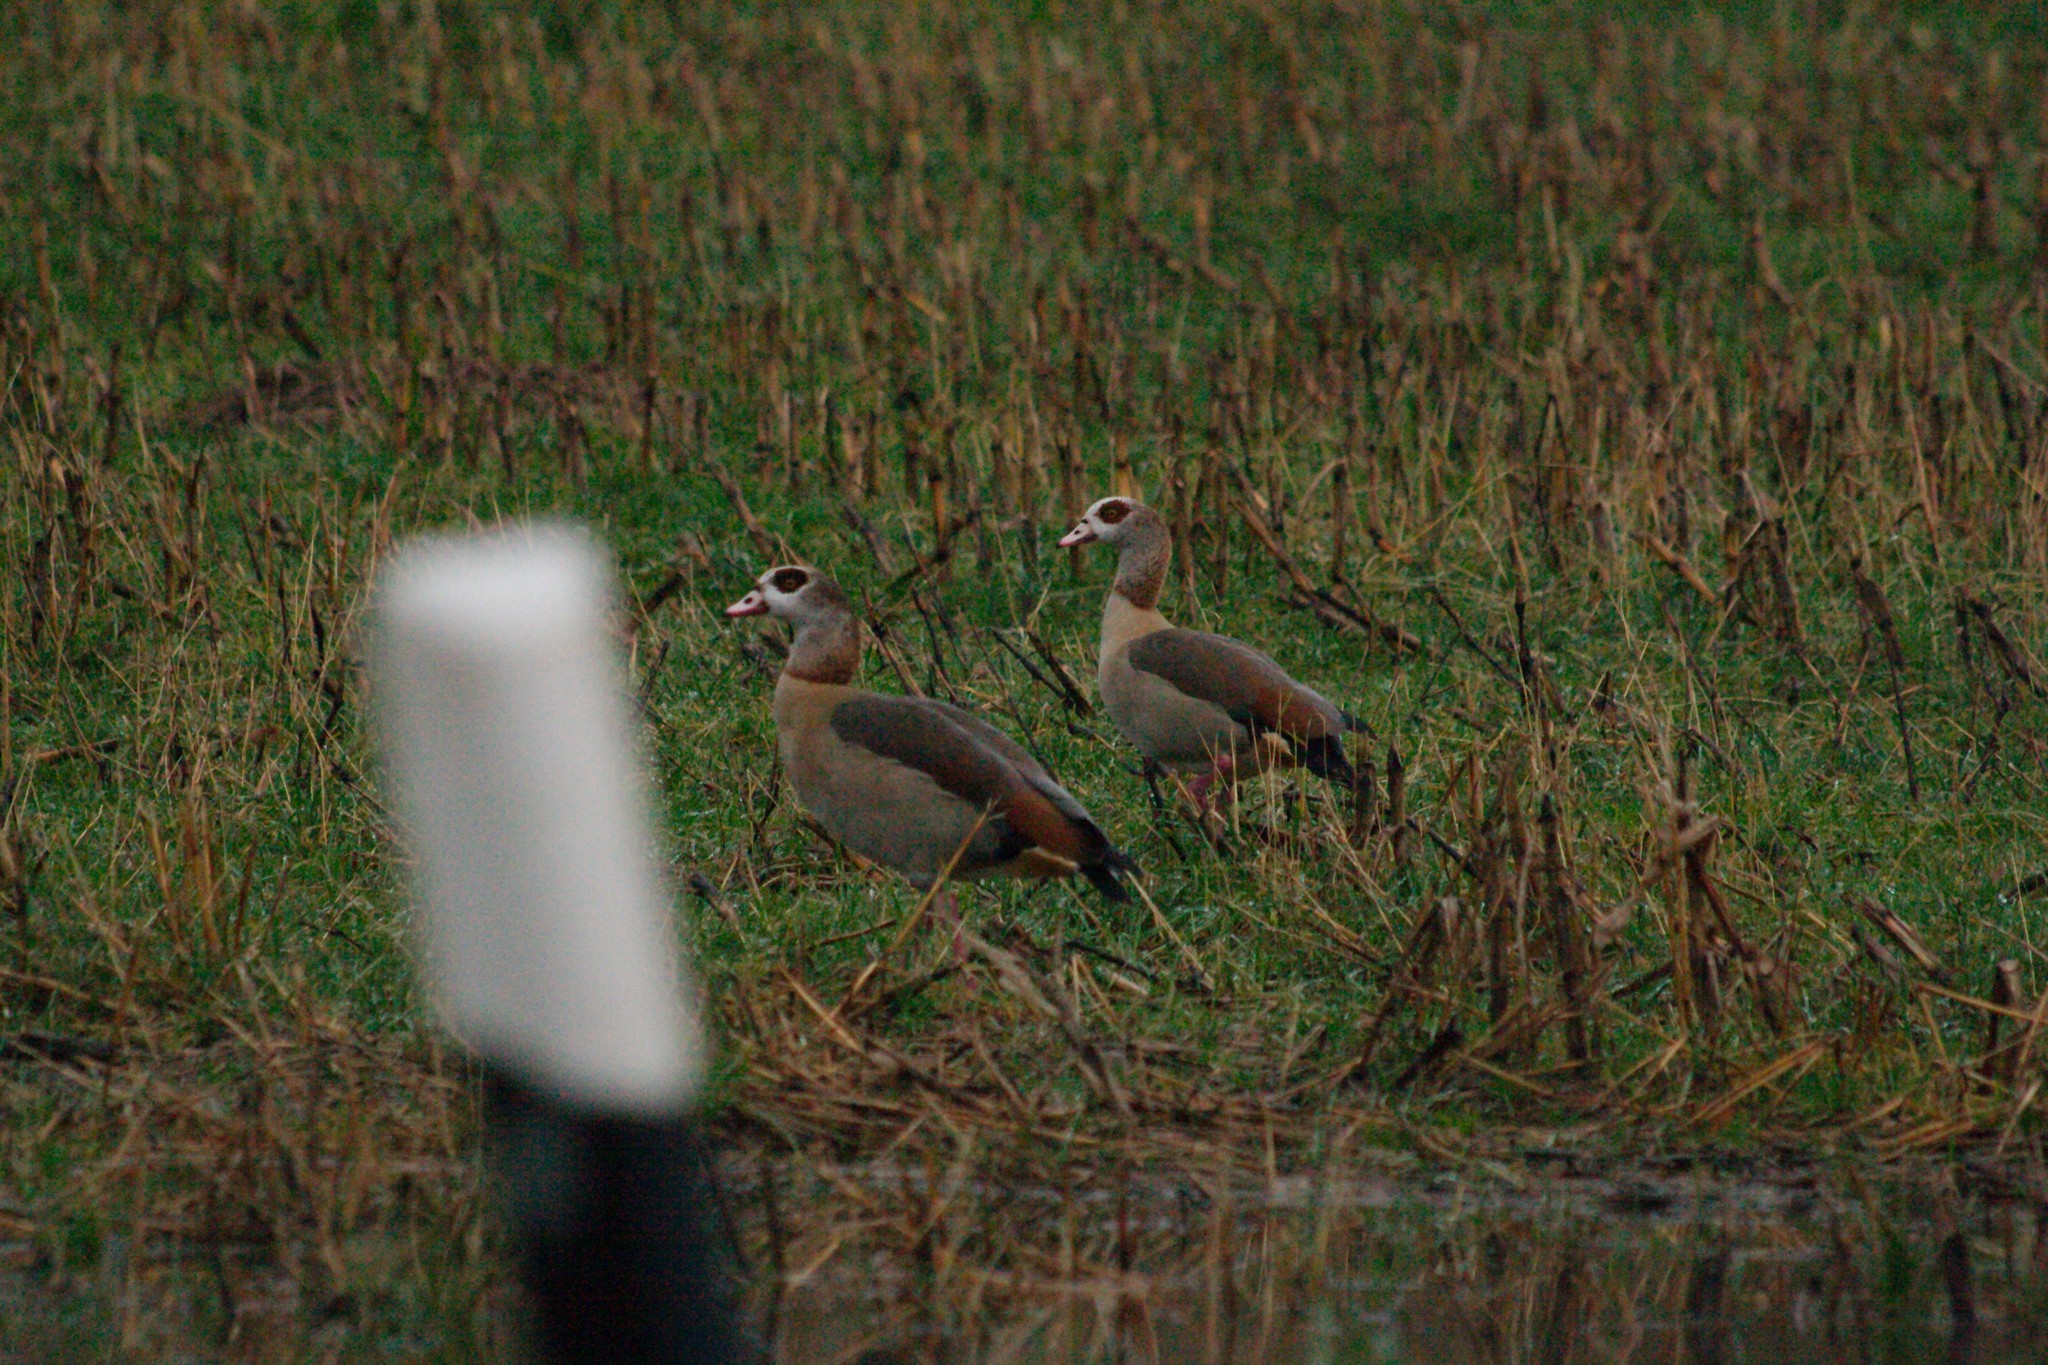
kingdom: Animalia
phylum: Chordata
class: Aves
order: Anseriformes
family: Anatidae
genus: Alopochen
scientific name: Alopochen aegyptiaca
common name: Egyptian goose
